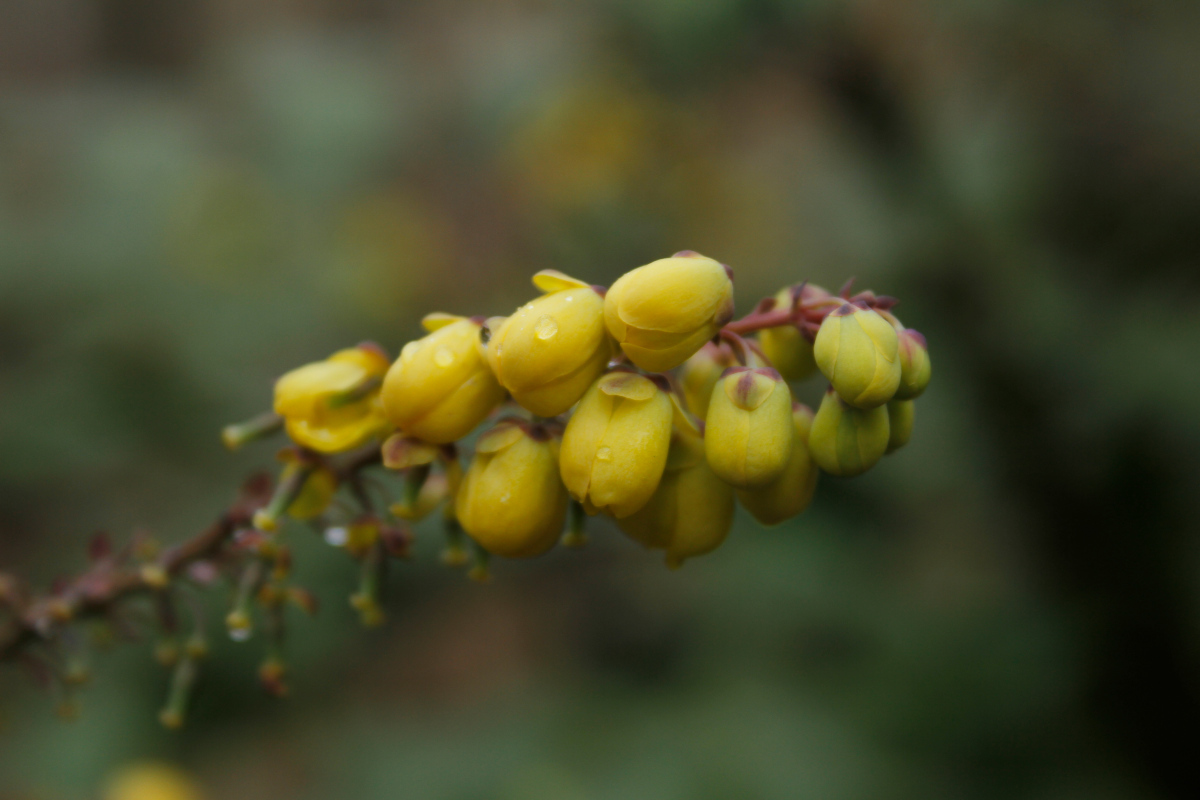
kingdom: Plantae
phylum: Tracheophyta
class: Magnoliopsida
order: Ranunculales
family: Berberidaceae
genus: Mahonia
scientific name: Mahonia bealei
